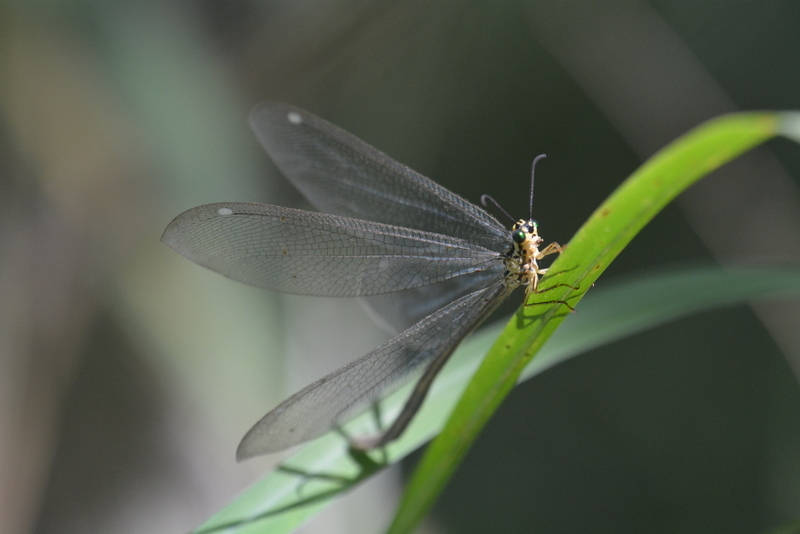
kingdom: Animalia
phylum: Arthropoda
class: Insecta
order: Neuroptera
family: Myrmeleontidae
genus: Hagenomyia
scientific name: Hagenomyia tristis
